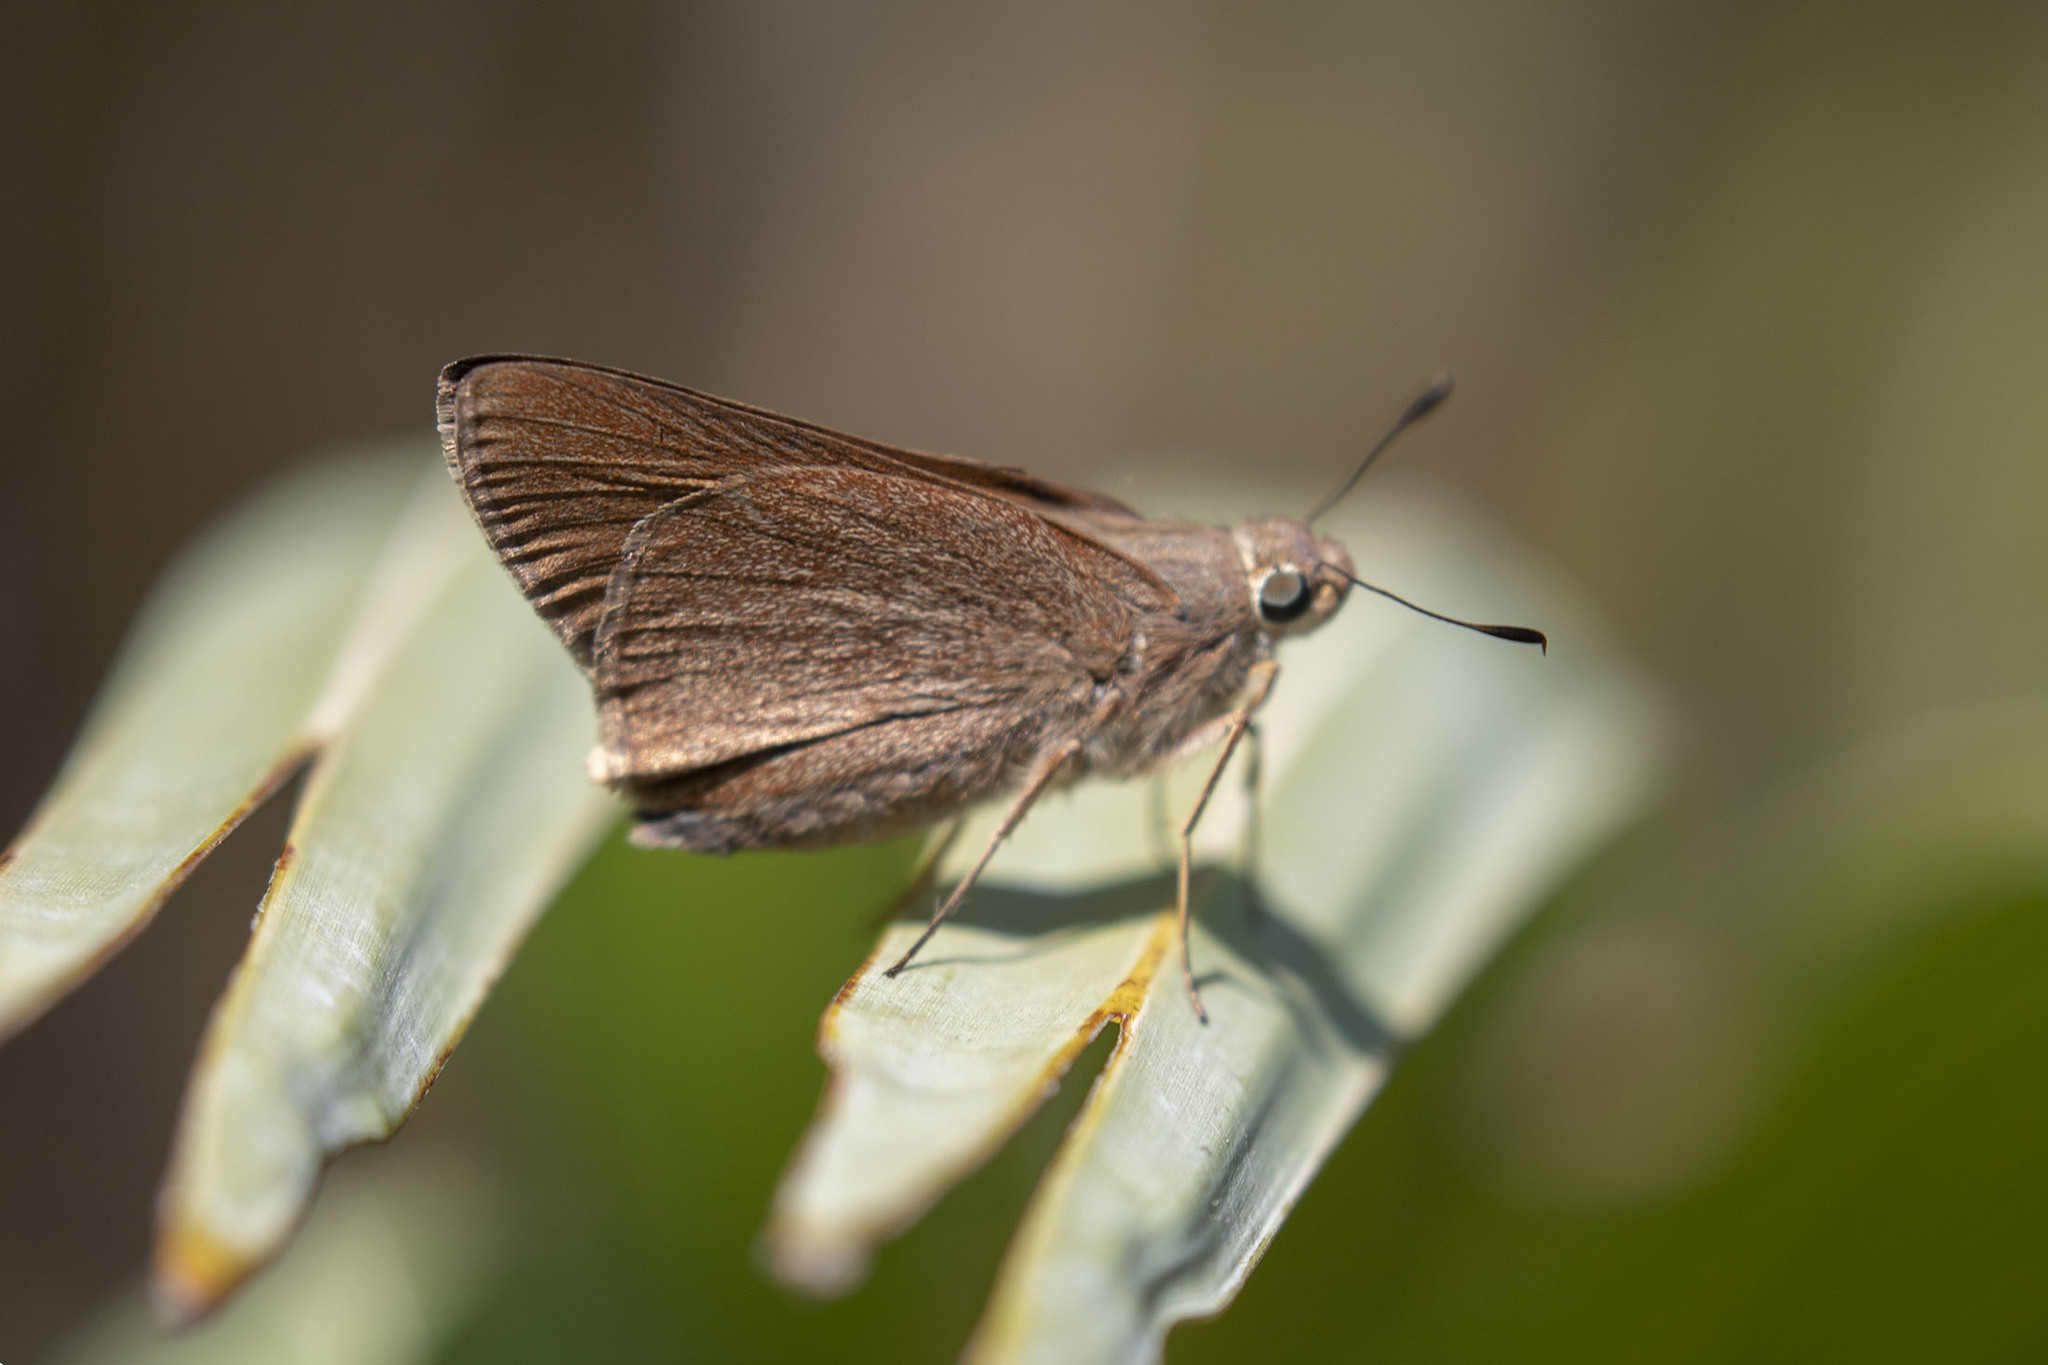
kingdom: Animalia
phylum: Arthropoda
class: Insecta
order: Lepidoptera
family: Hesperiidae
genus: Asbolis
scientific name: Asbolis capucinus
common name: Monk skipper
